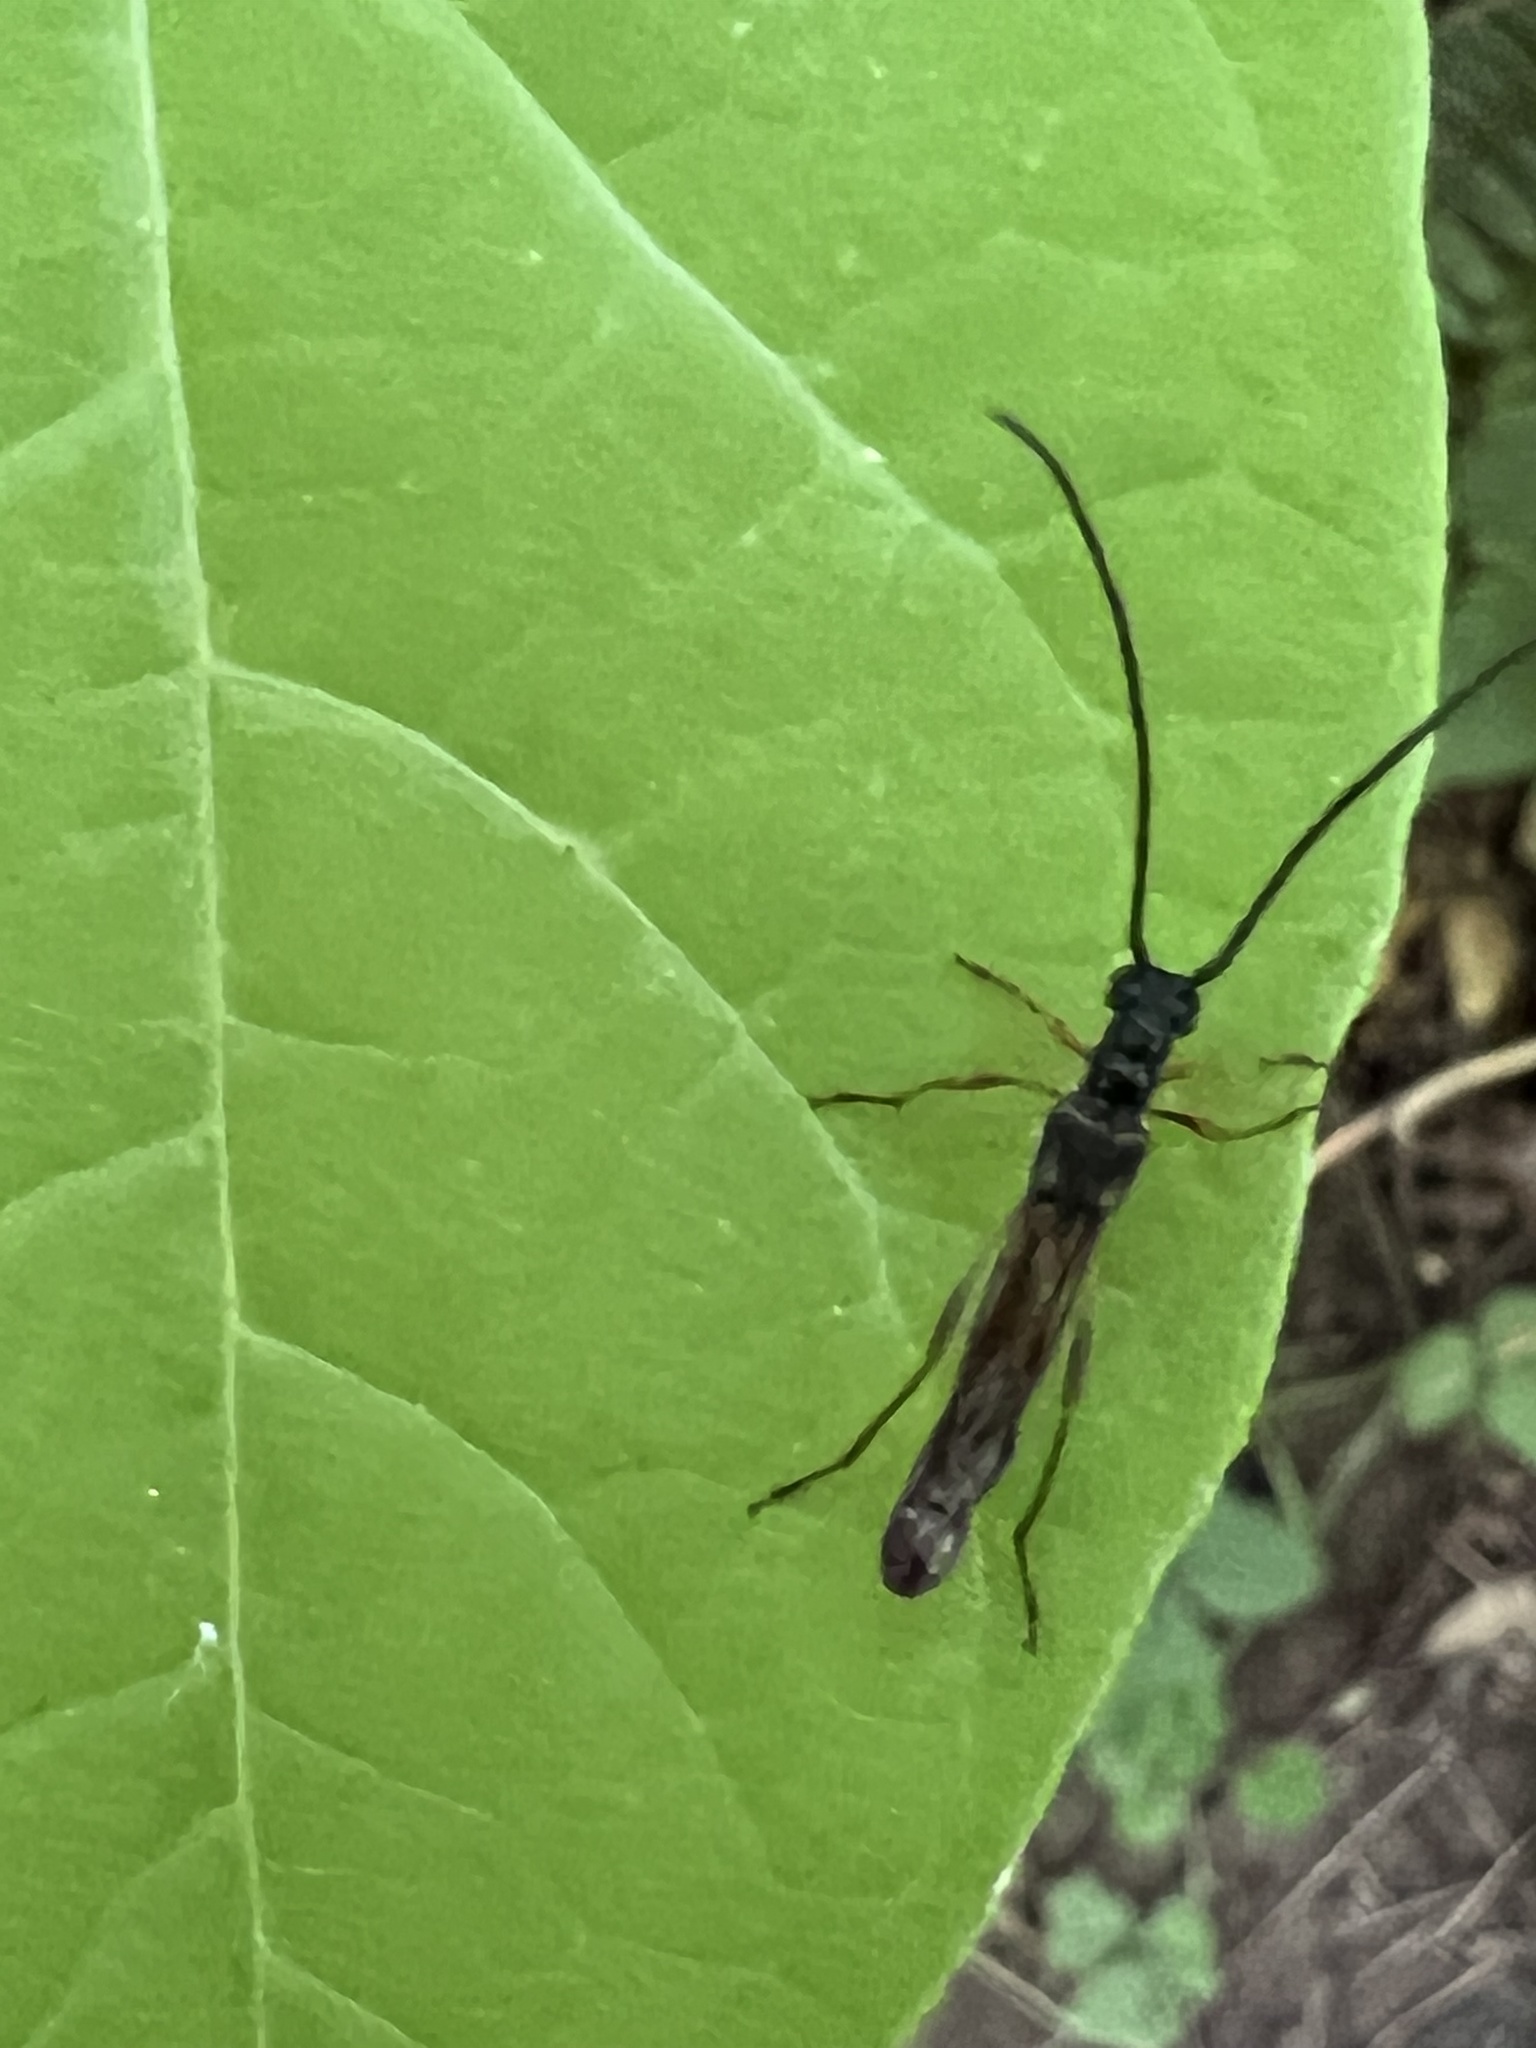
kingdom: Animalia
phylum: Arthropoda
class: Insecta
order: Coleoptera
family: Cerambycidae
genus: Necydalis
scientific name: Necydalis mellita
